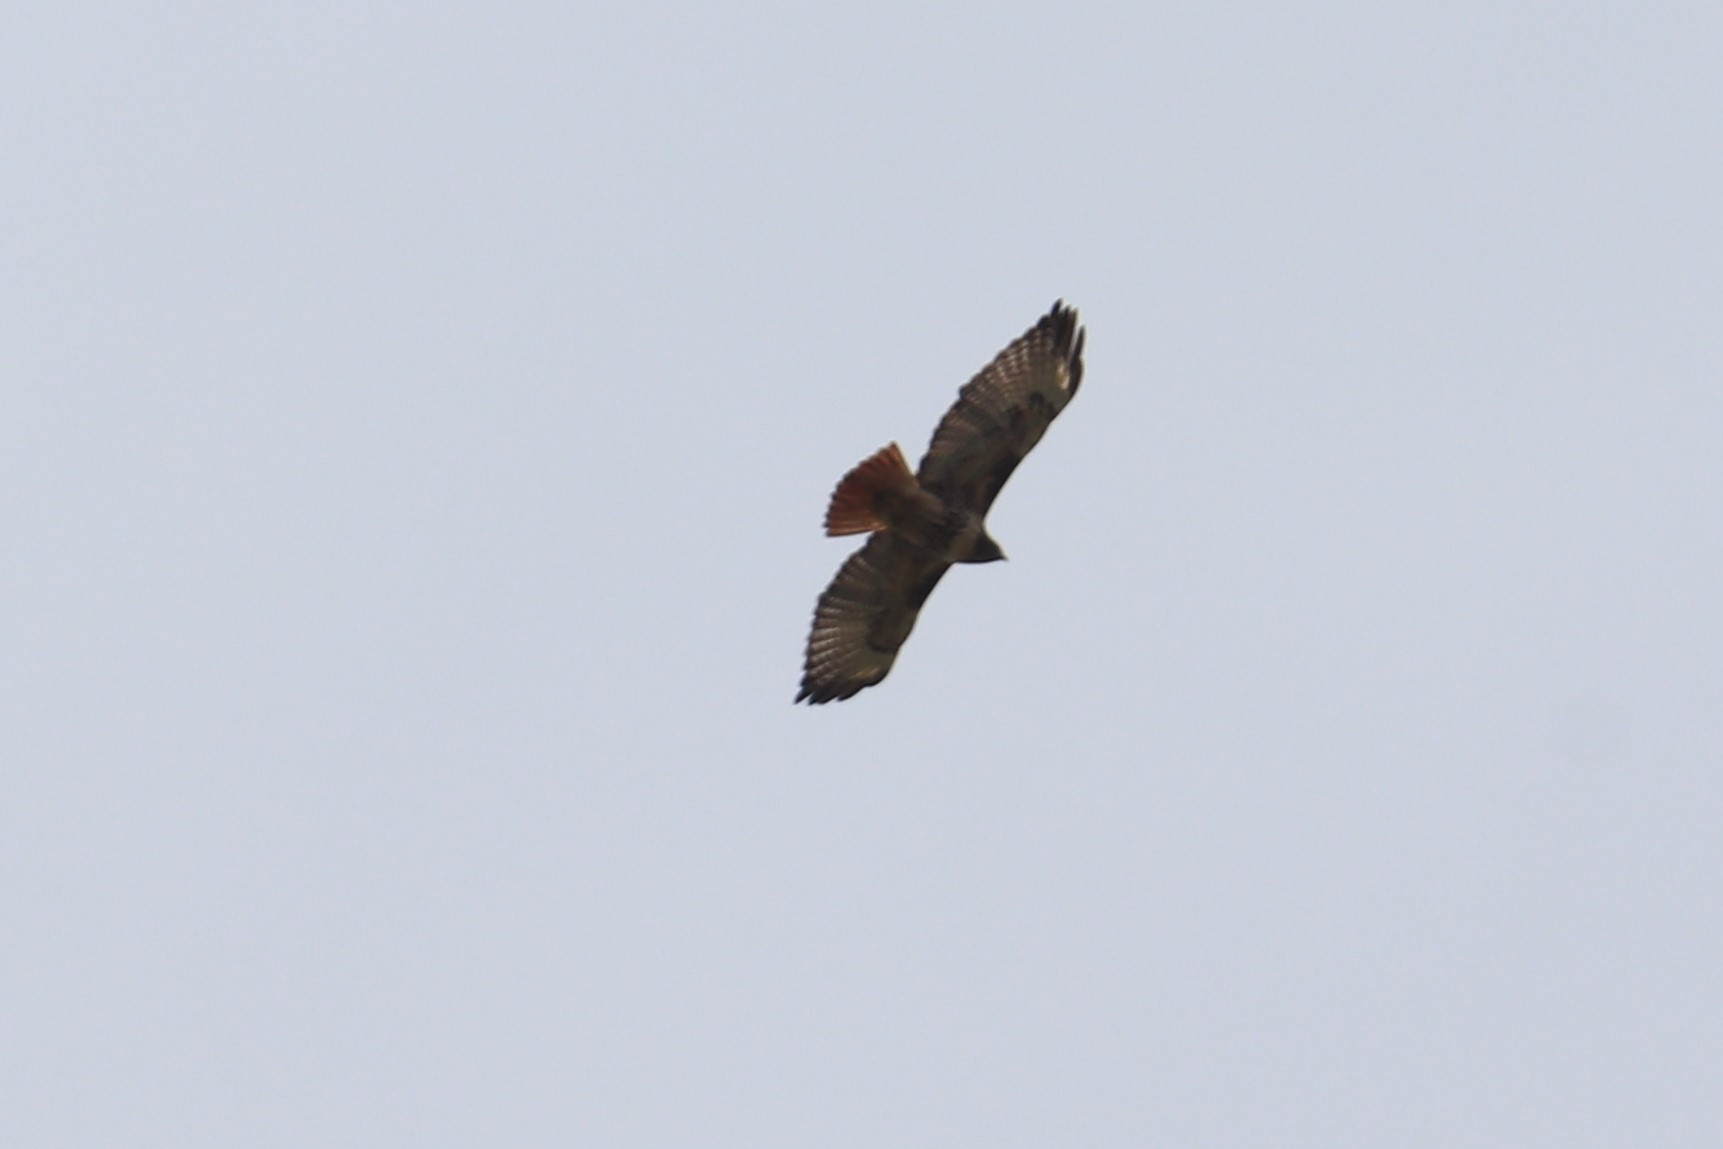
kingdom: Animalia
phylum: Chordata
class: Aves
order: Accipitriformes
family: Accipitridae
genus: Buteo
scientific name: Buteo jamaicensis
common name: Red-tailed hawk
